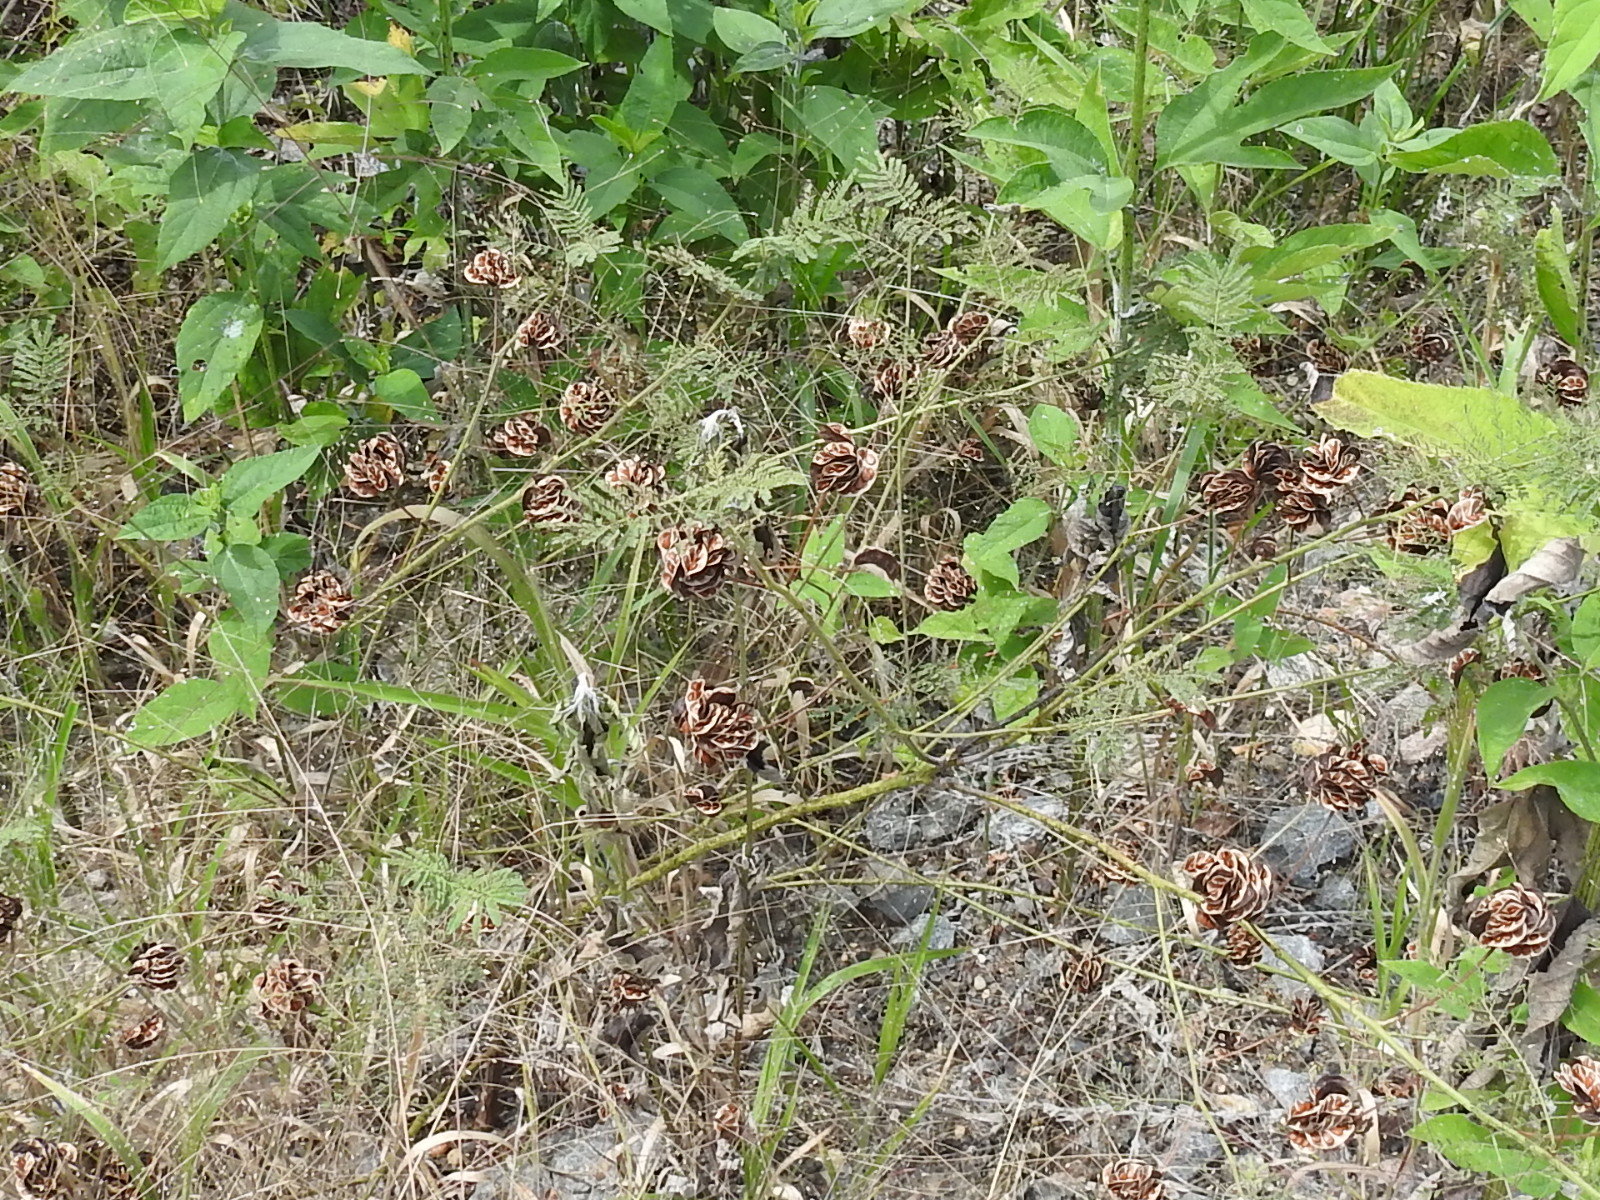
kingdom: Plantae
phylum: Tracheophyta
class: Magnoliopsida
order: Fabales
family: Fabaceae
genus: Desmanthus
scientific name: Desmanthus illinoensis
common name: Illinois bundle-flower
